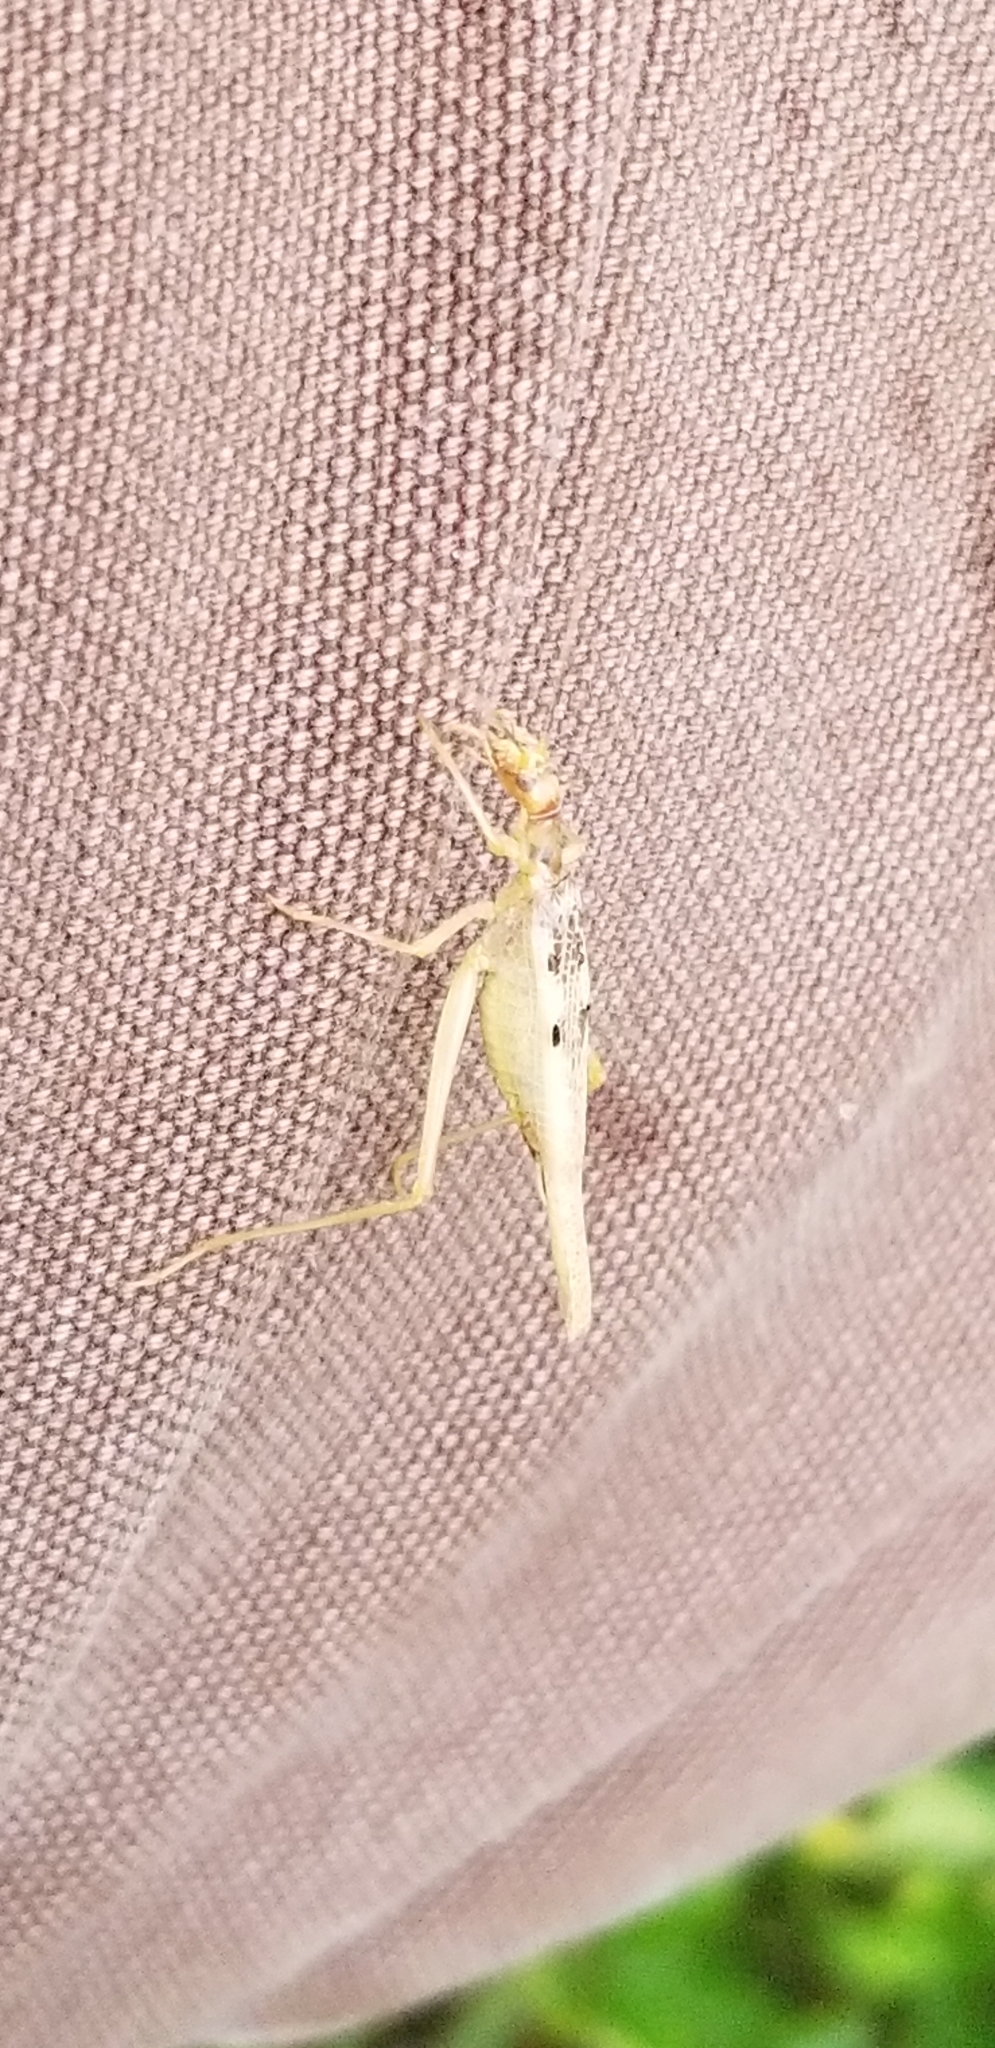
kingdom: Animalia
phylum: Arthropoda
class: Insecta
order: Orthoptera
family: Gryllidae
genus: Neoxabea
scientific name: Neoxabea bipunctata
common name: Two-spotted tree cricket
